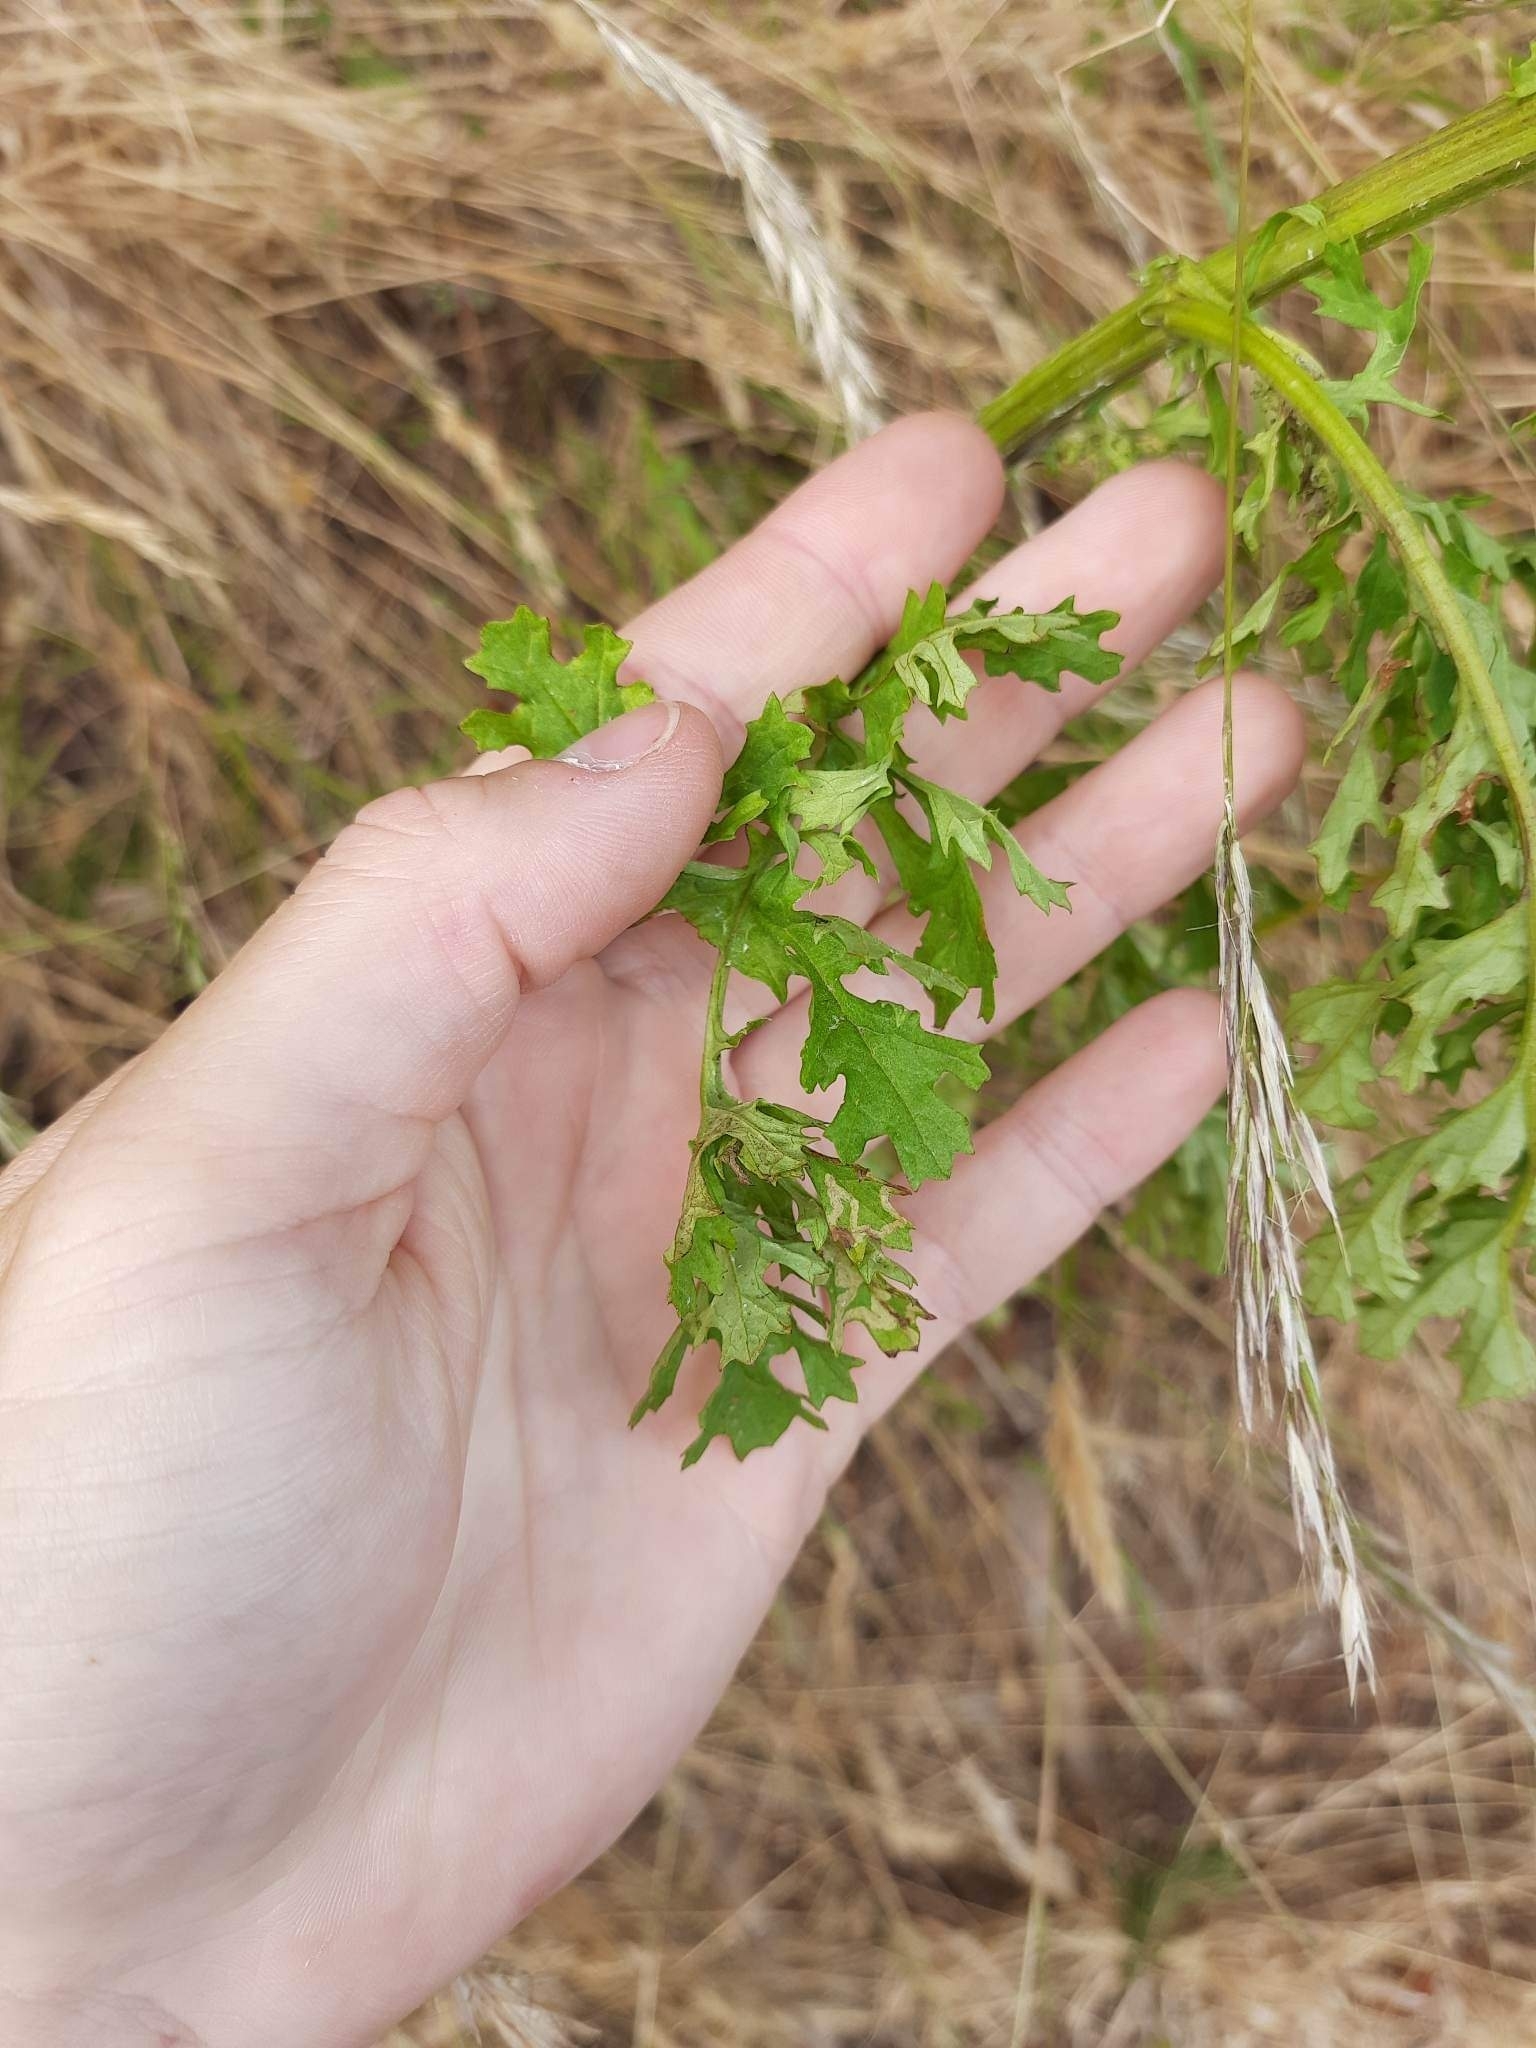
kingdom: Plantae
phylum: Tracheophyta
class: Magnoliopsida
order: Asterales
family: Asteraceae
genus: Jacobaea
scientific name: Jacobaea vulgaris
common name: Stinking willie
